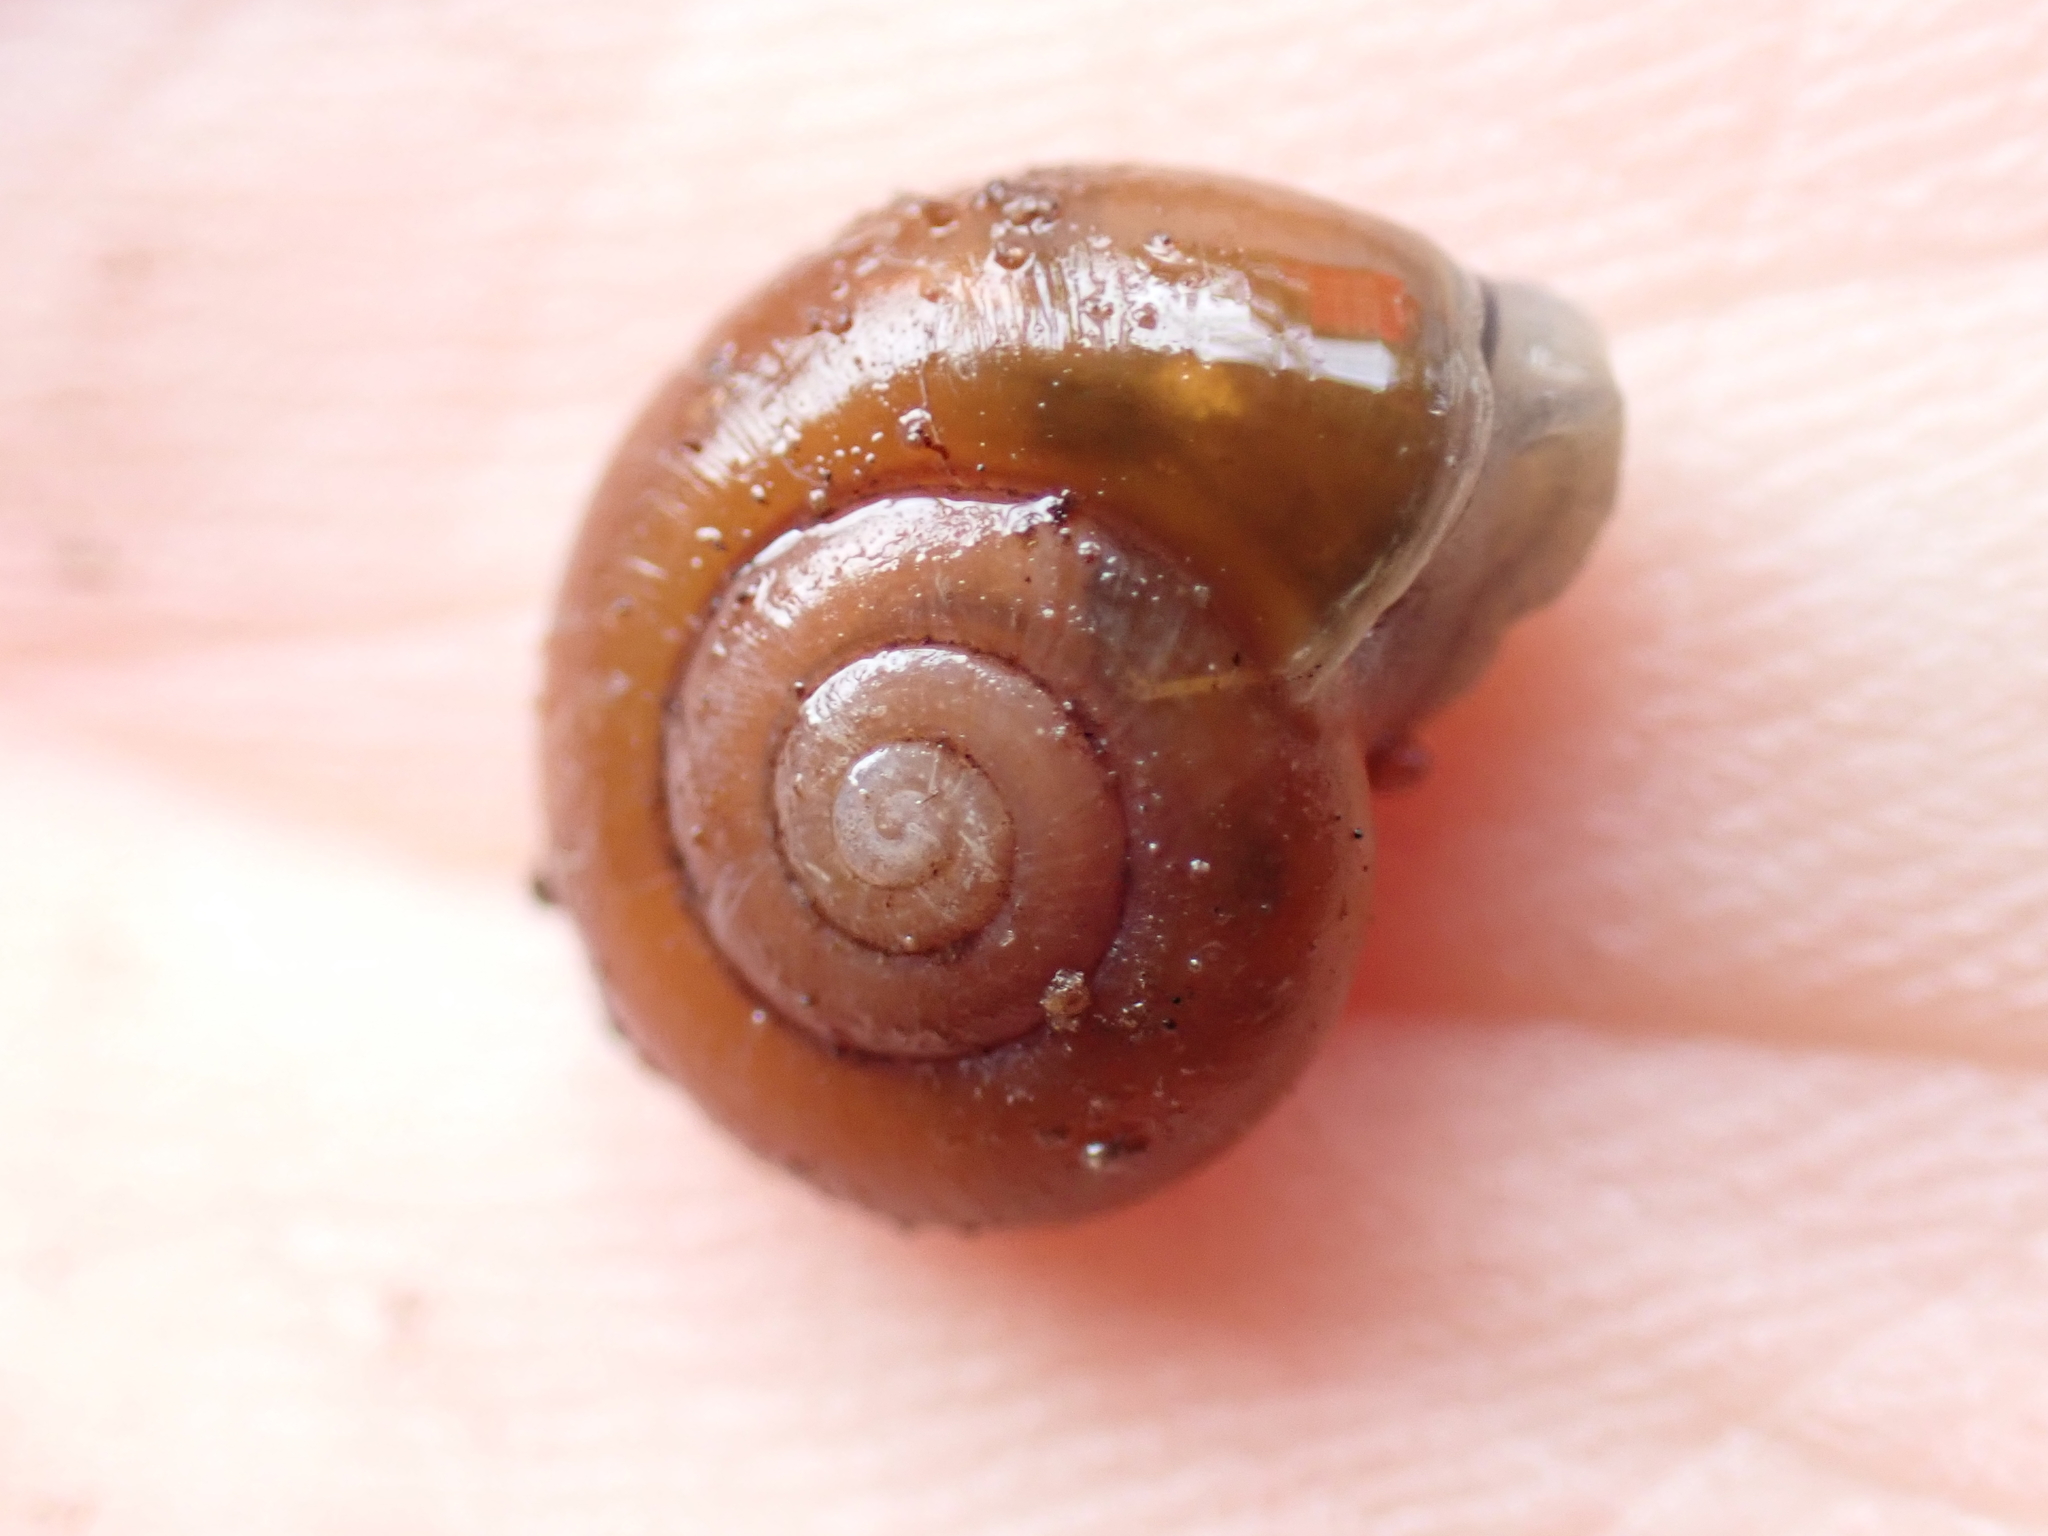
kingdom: Animalia
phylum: Mollusca
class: Gastropoda
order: Stylommatophora
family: Gastrodontidae
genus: Aegopinella
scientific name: Aegopinella nitidula
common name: Smooth glass snail
